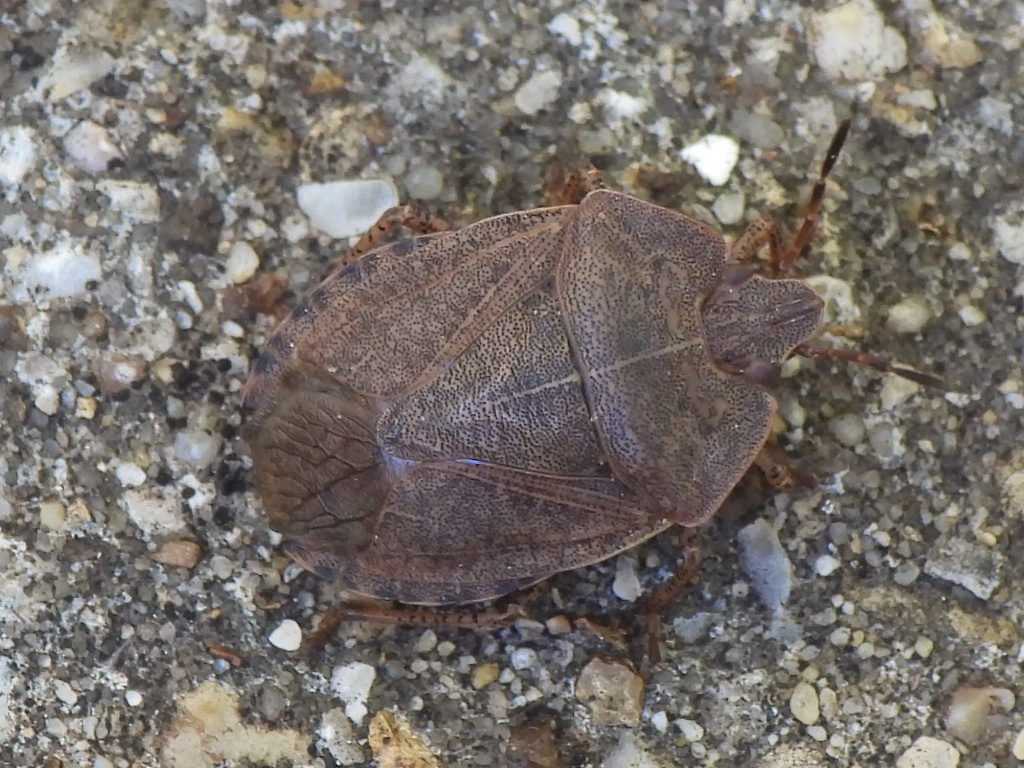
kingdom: Animalia
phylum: Arthropoda
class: Insecta
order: Hemiptera
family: Pentatomidae
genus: Menecles
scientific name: Menecles insertus
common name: Elf shoe stink bug
